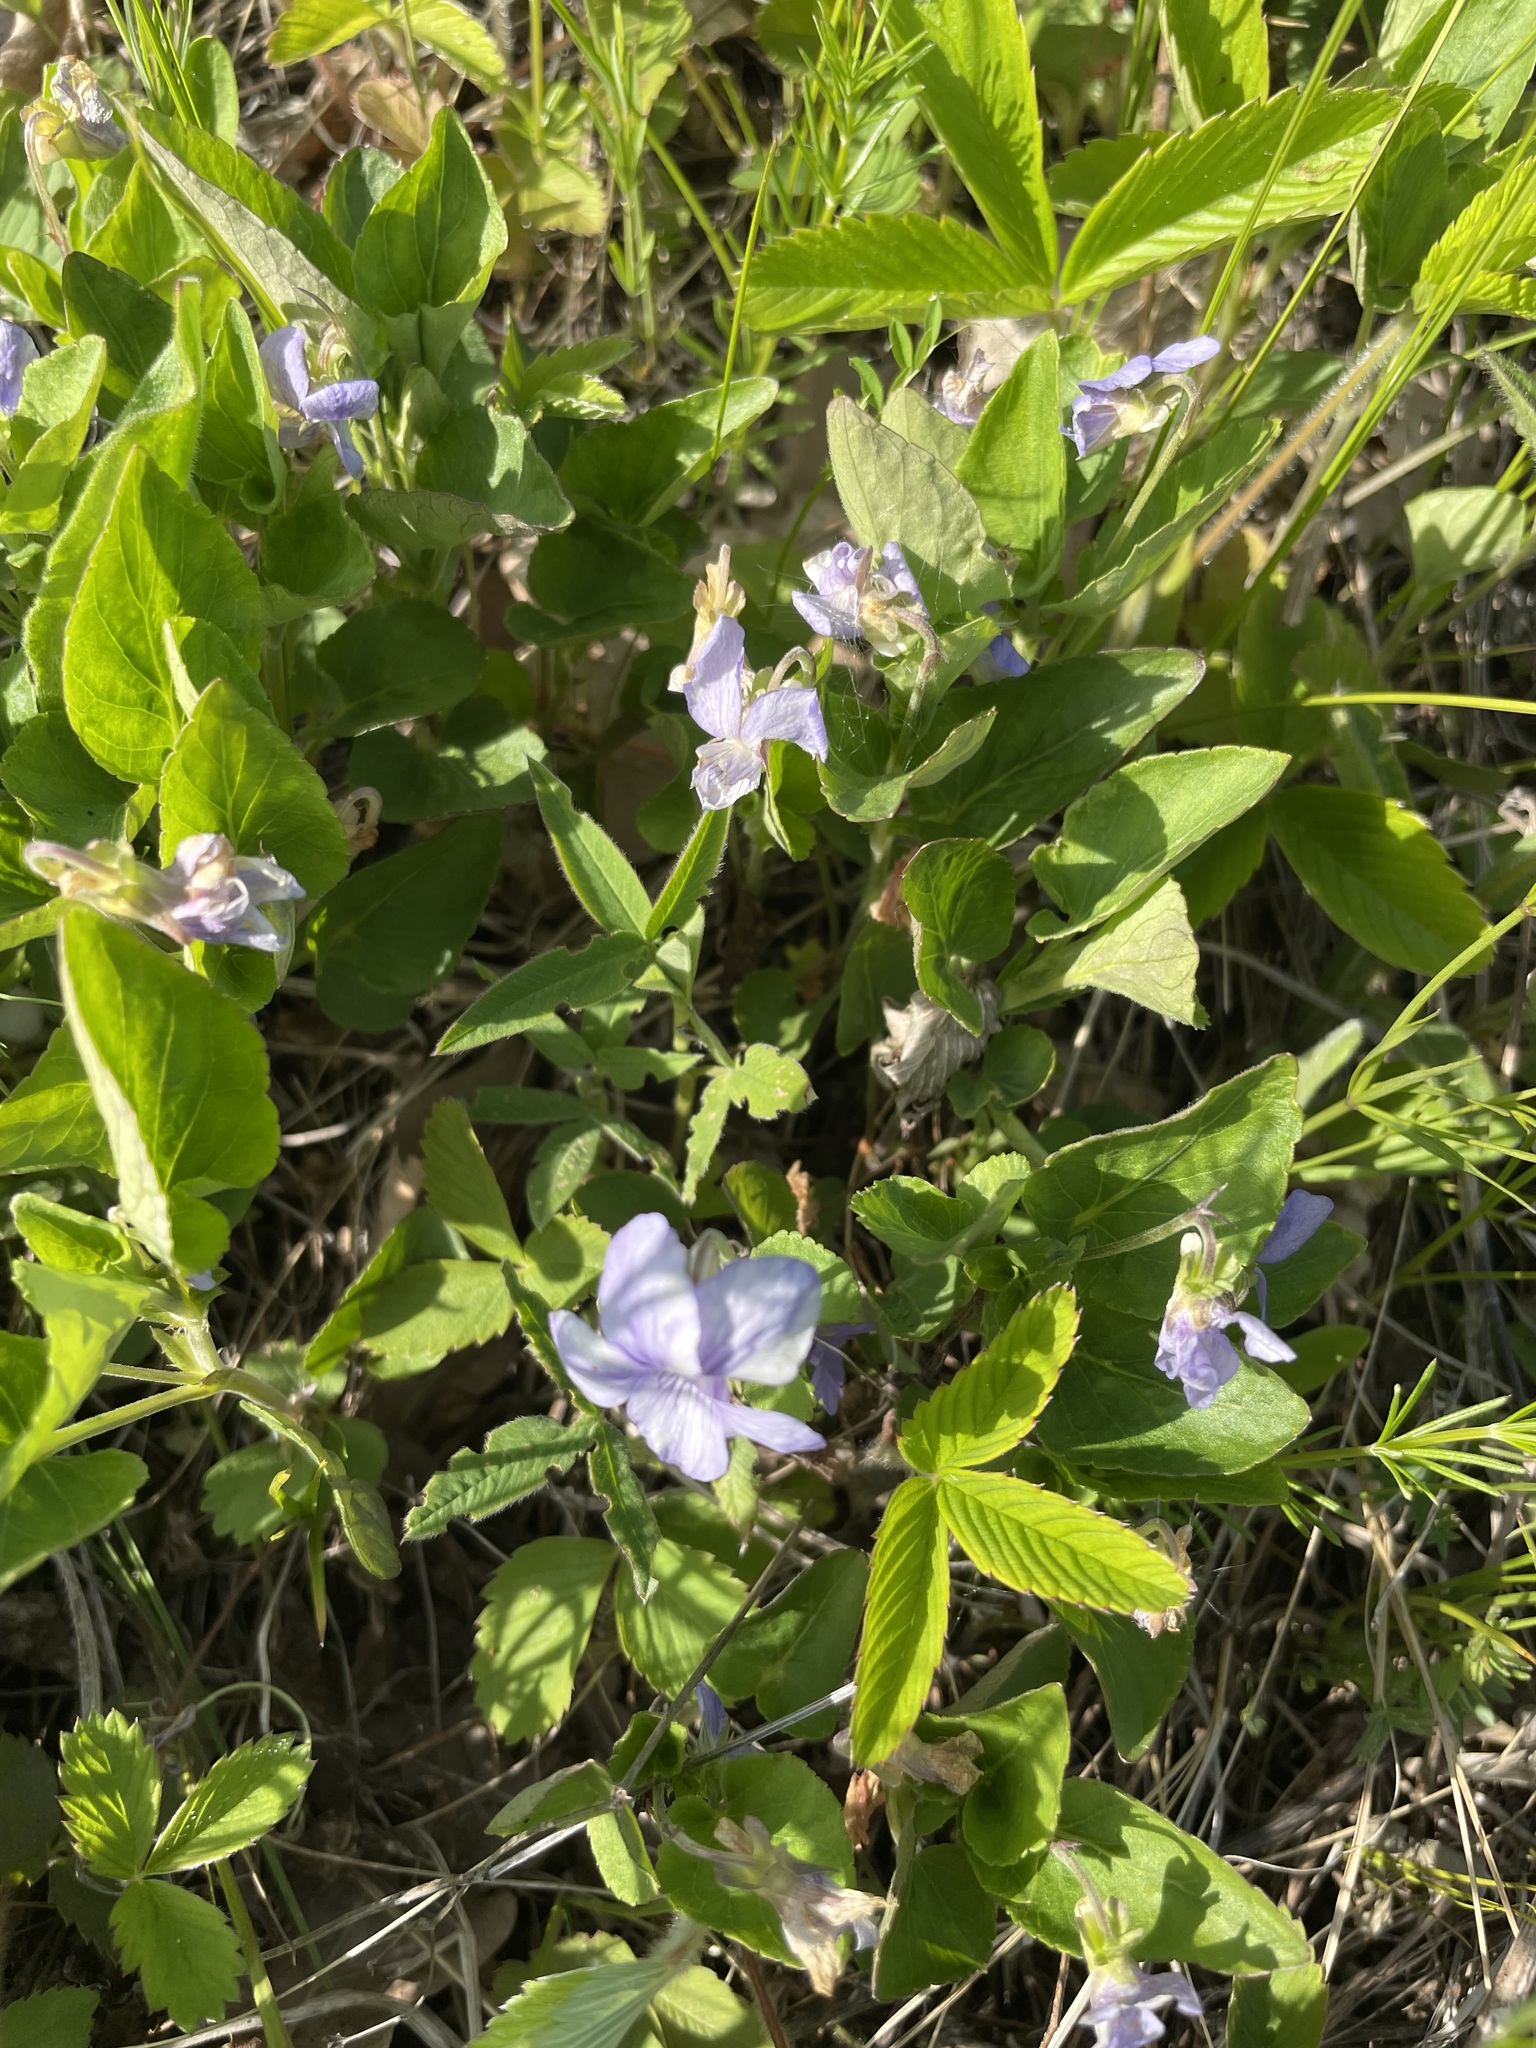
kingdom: Plantae
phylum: Tracheophyta
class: Magnoliopsida
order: Malpighiales
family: Violaceae
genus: Viola
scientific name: Viola canina
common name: Heath dog-violet
